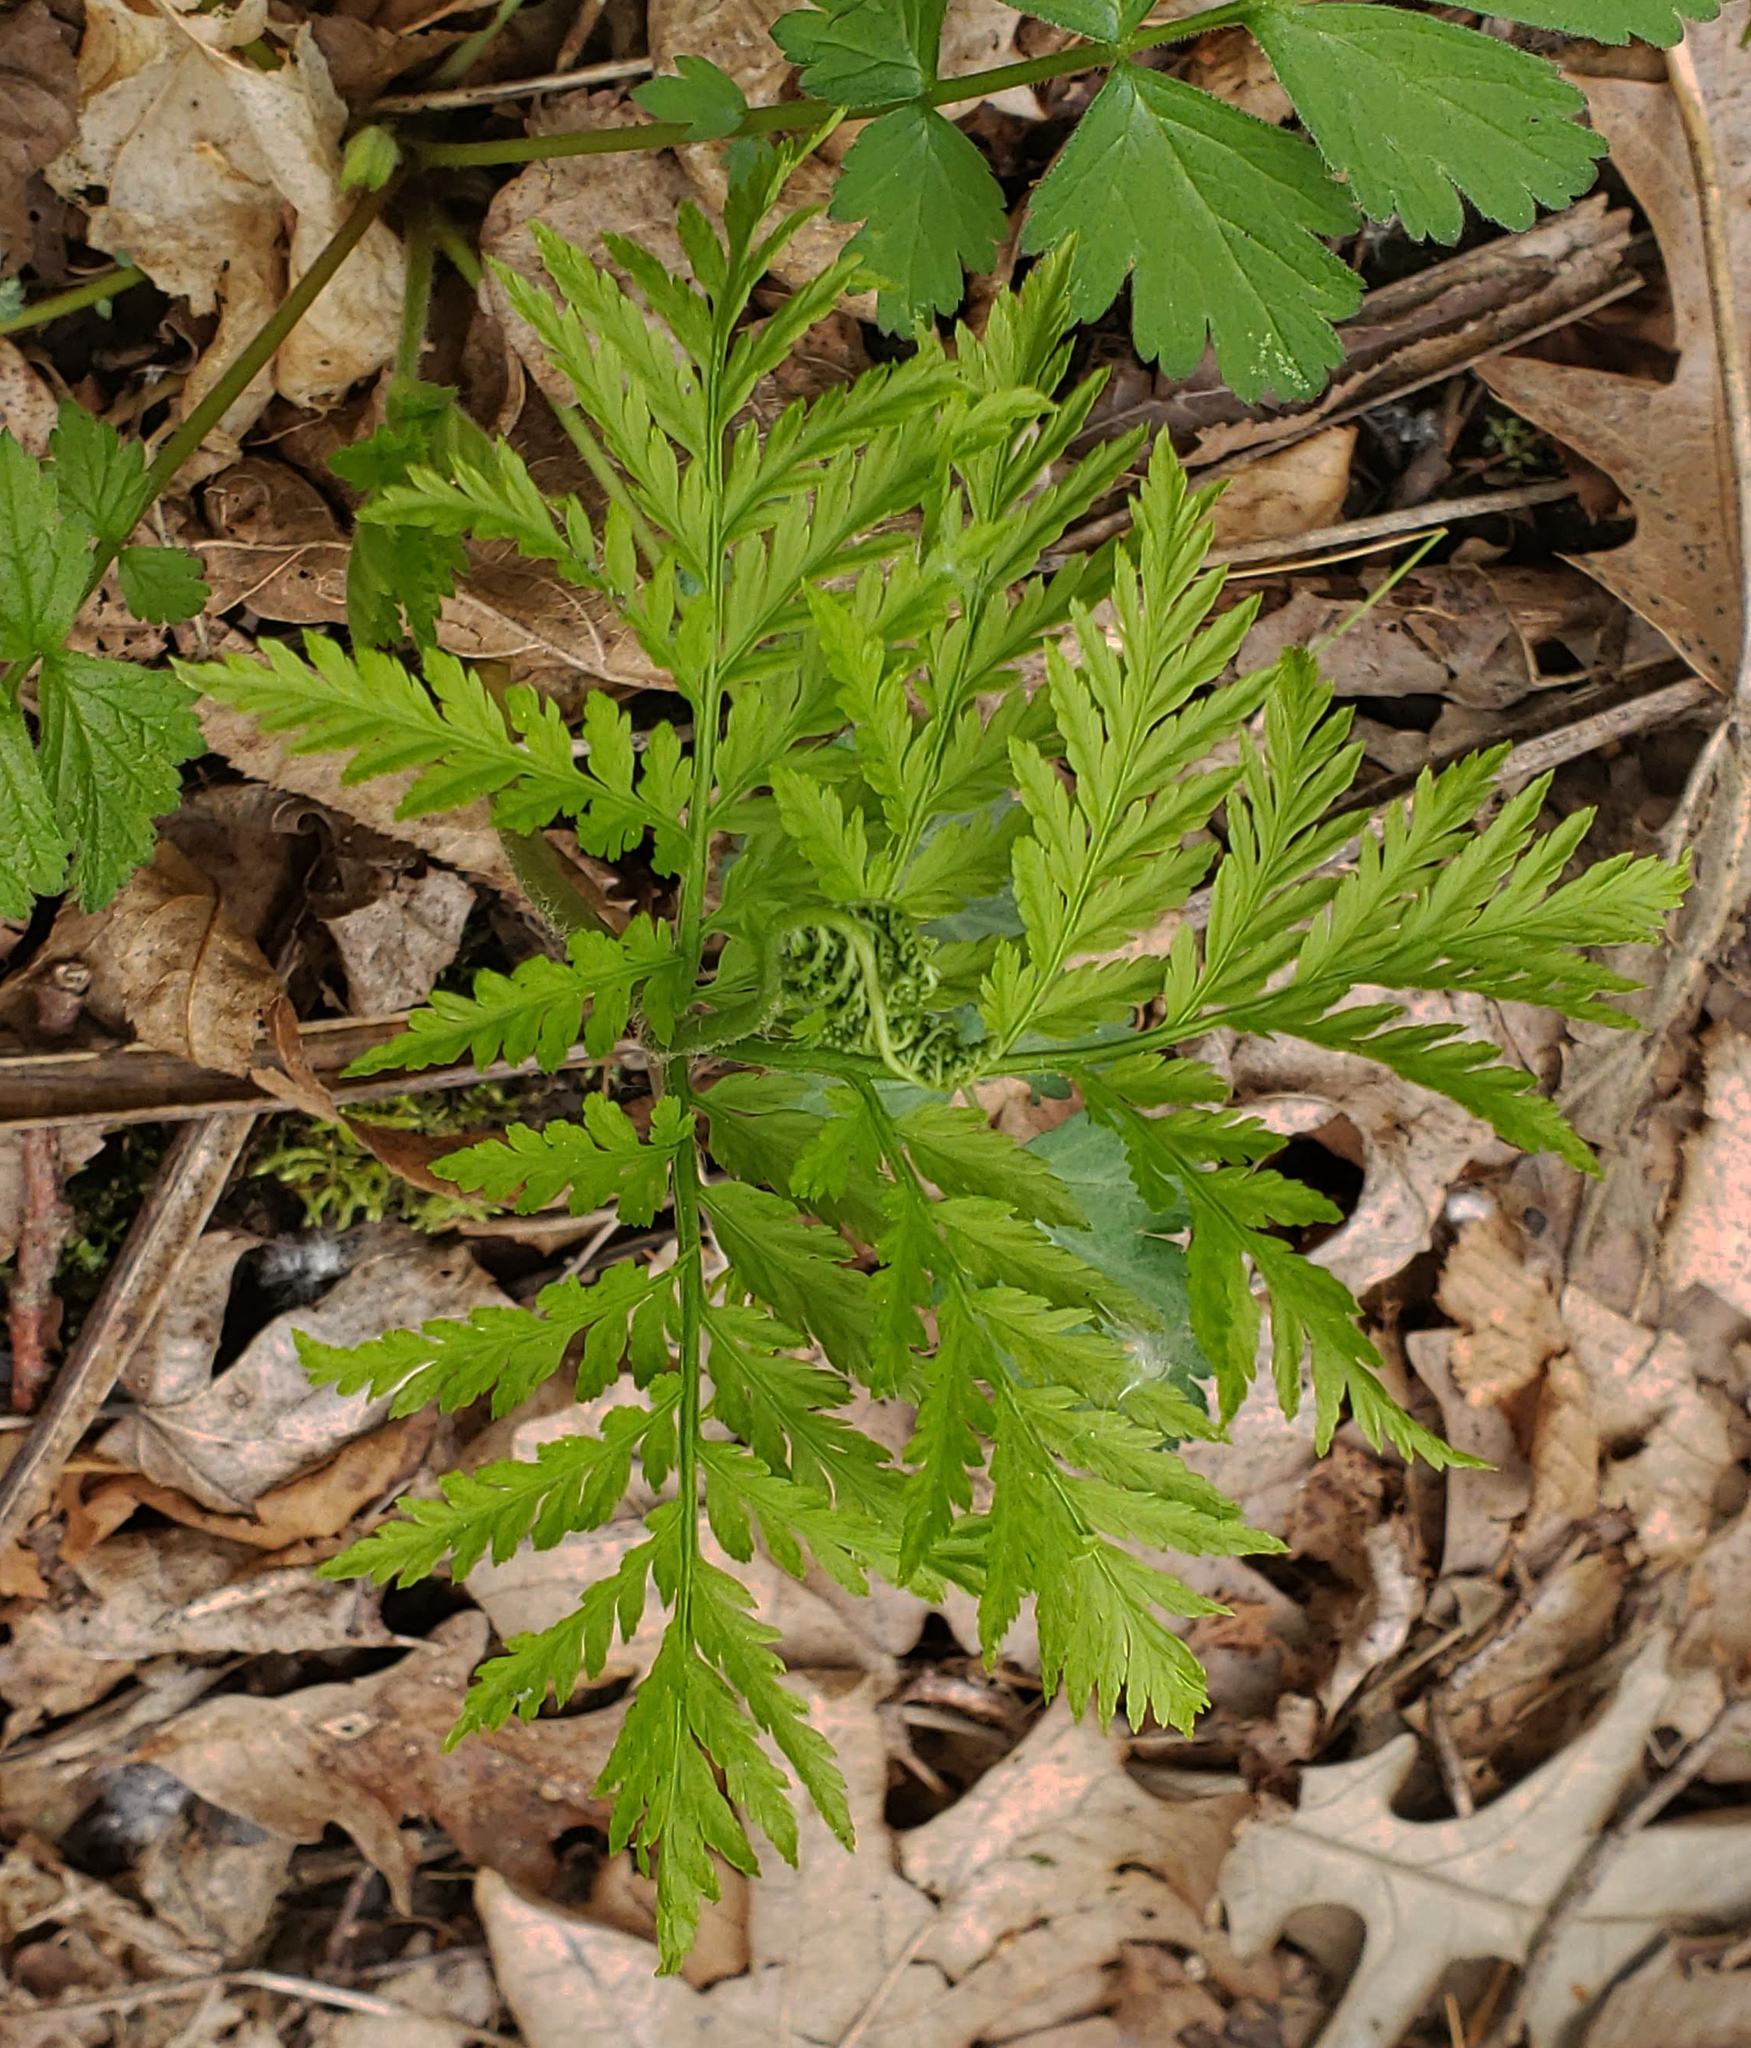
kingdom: Plantae
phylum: Tracheophyta
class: Polypodiopsida
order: Ophioglossales
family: Ophioglossaceae
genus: Botrypus
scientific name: Botrypus virginianus
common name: Common grapefern
